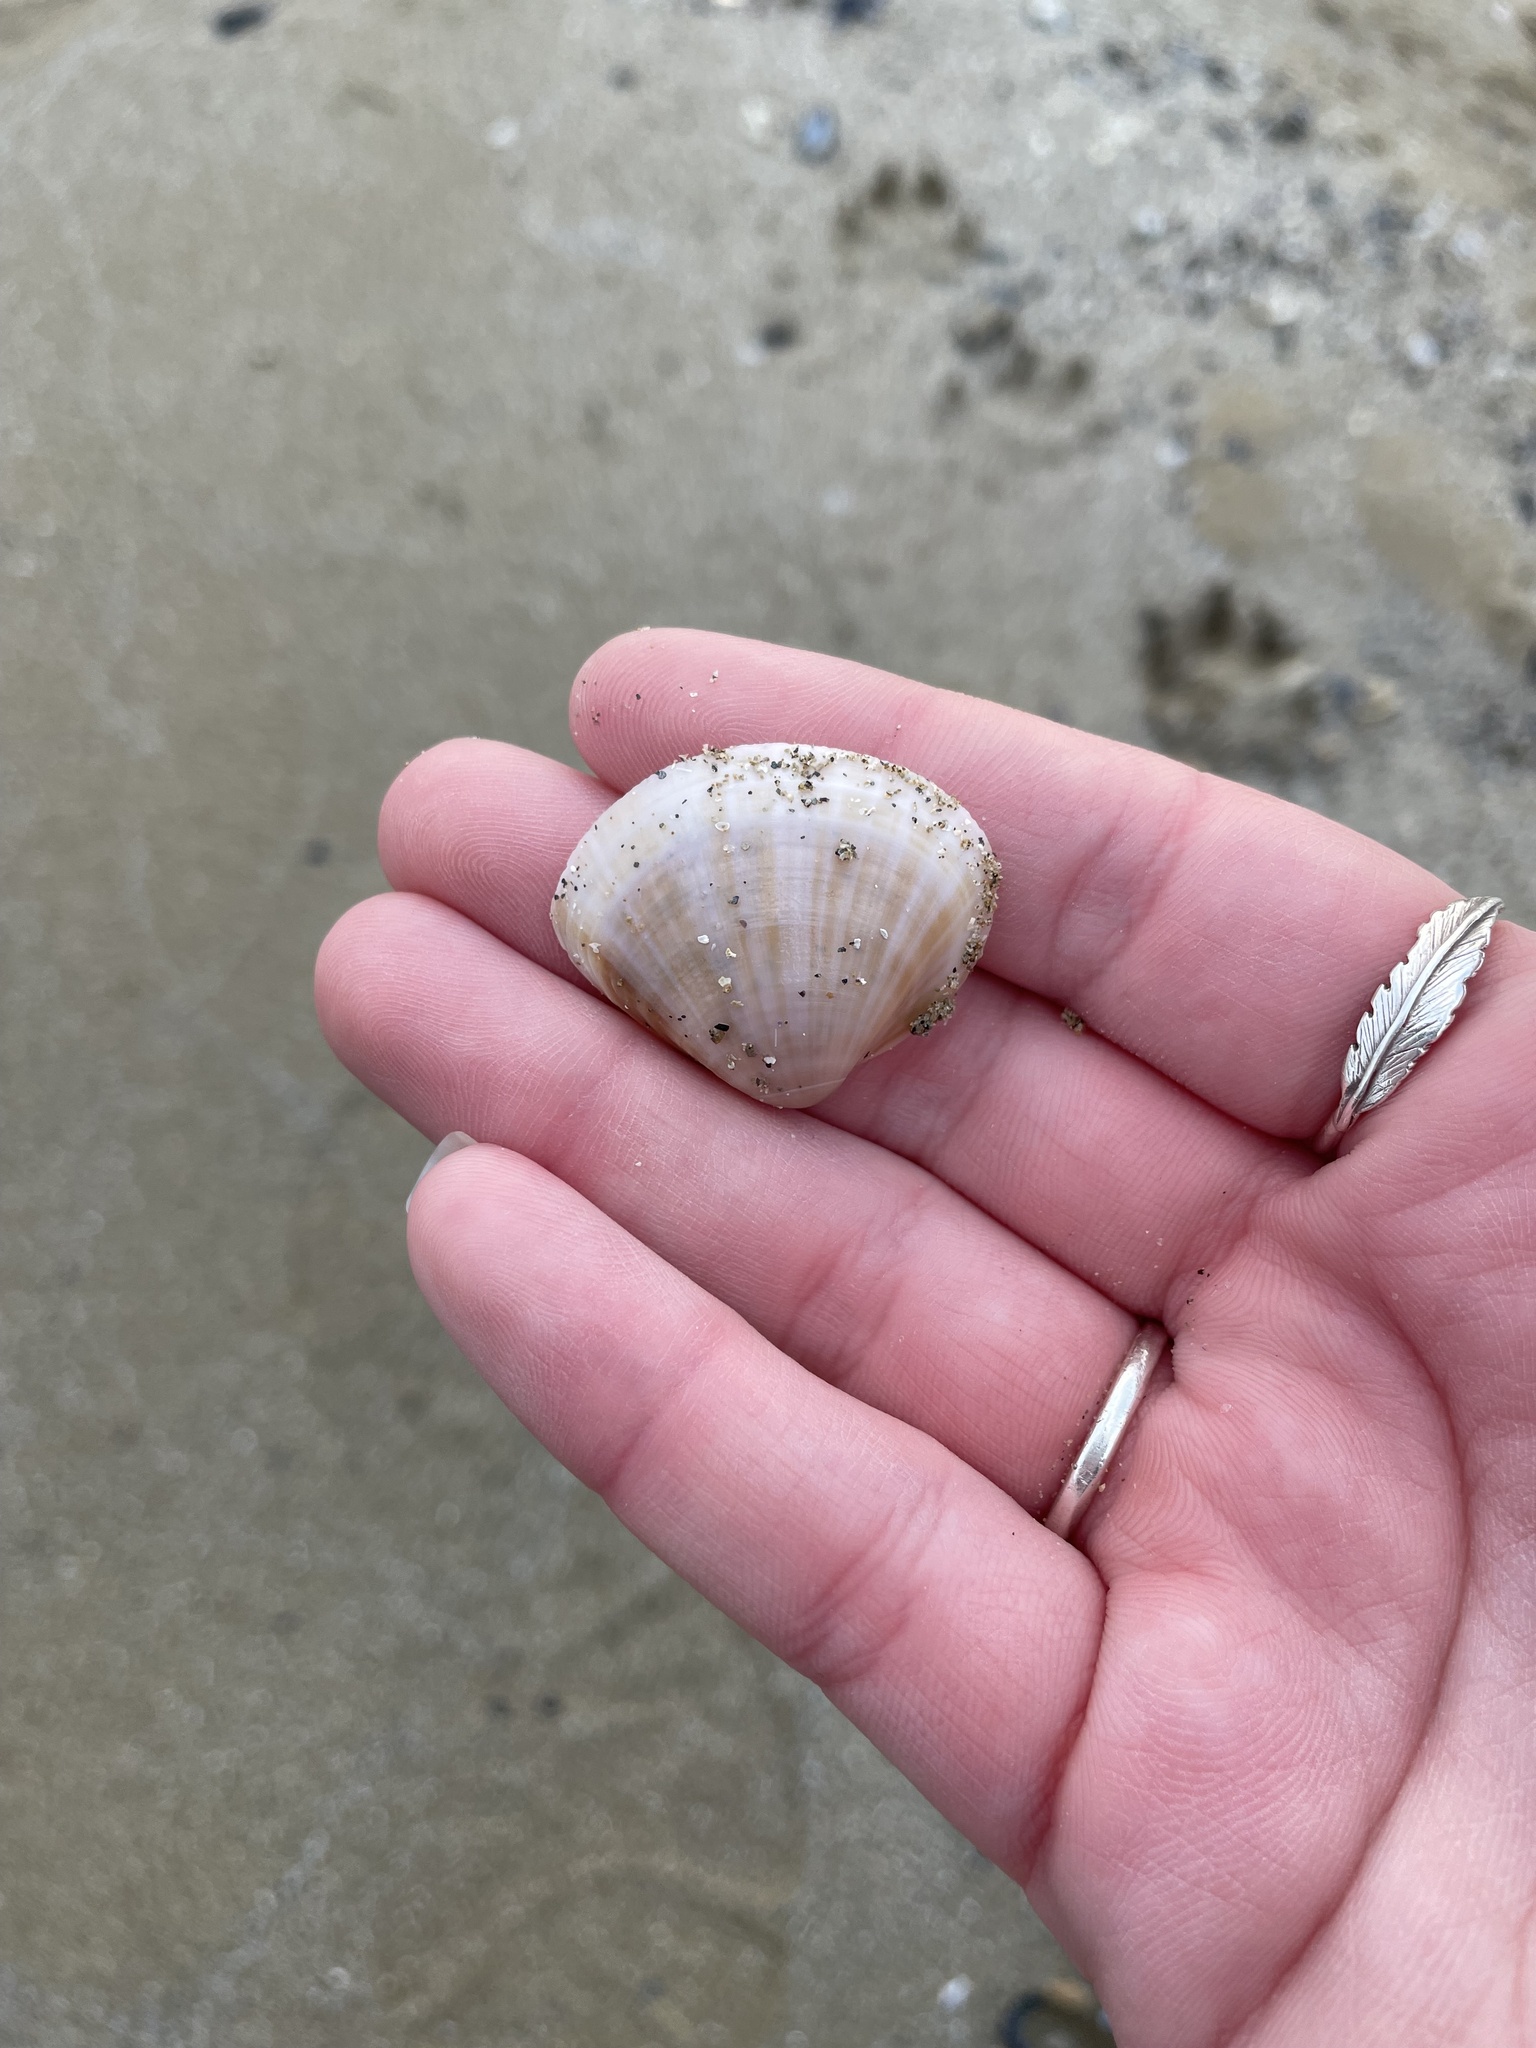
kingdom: Animalia
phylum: Mollusca
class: Bivalvia
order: Venerida
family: Mactridae
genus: Mactra
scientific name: Mactra stultorum
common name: Rayed trough shell
